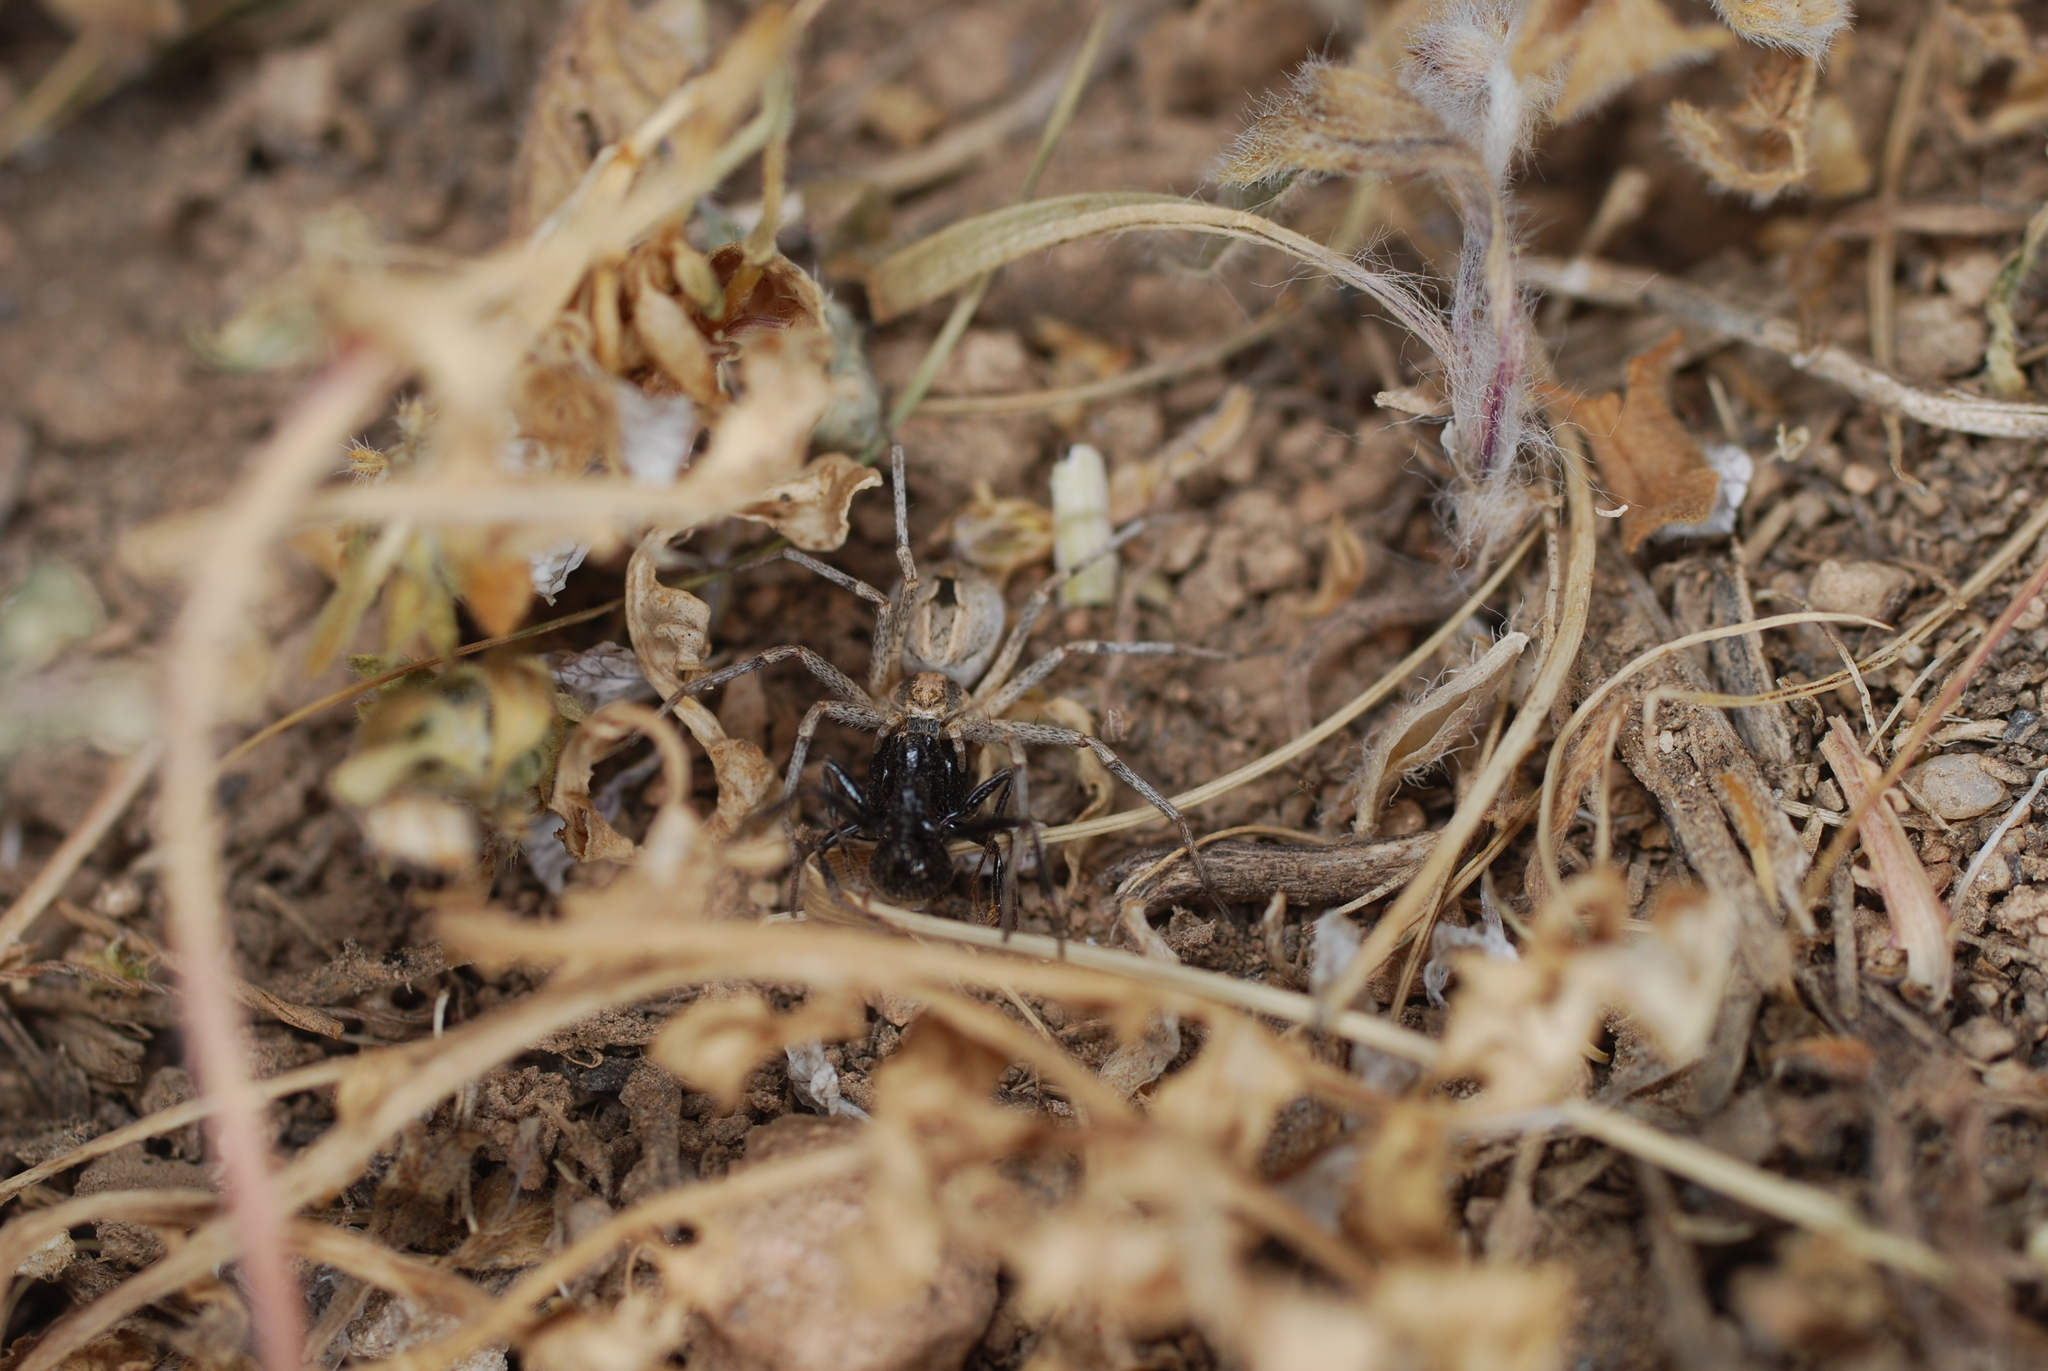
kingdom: Animalia
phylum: Arthropoda
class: Arachnida
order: Araneae
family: Philodromidae
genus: Thanatus
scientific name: Thanatus
